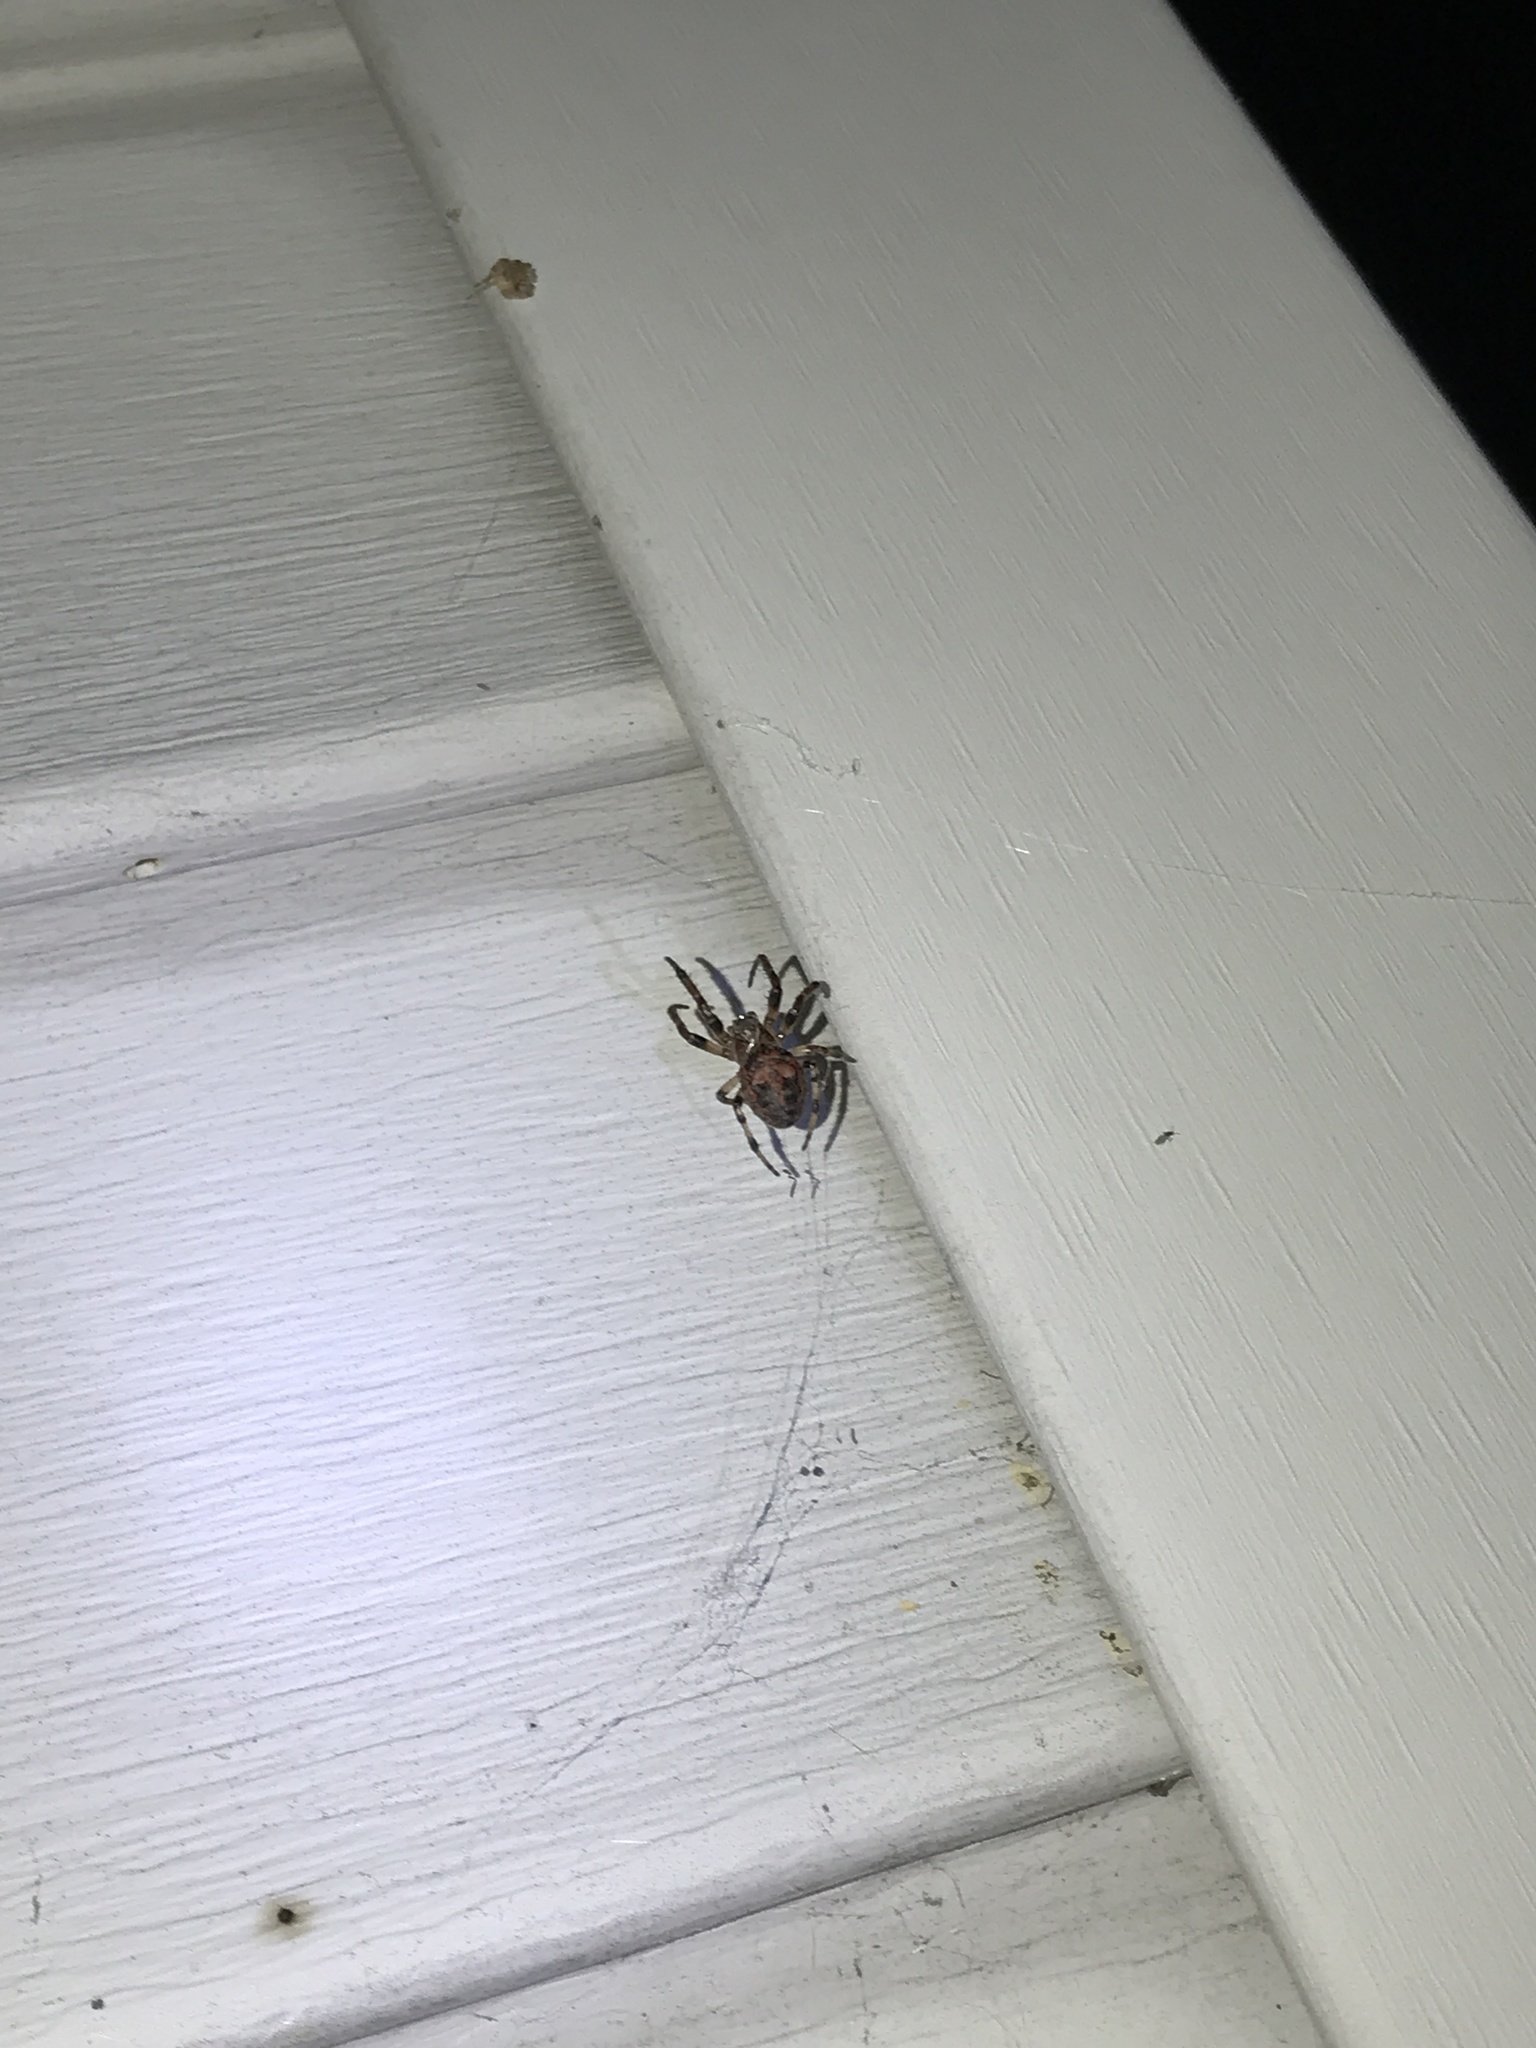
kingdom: Animalia
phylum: Arthropoda
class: Arachnida
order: Araneae
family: Araneidae
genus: Larinioides
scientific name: Larinioides cornutus
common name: Furrow orbweaver
